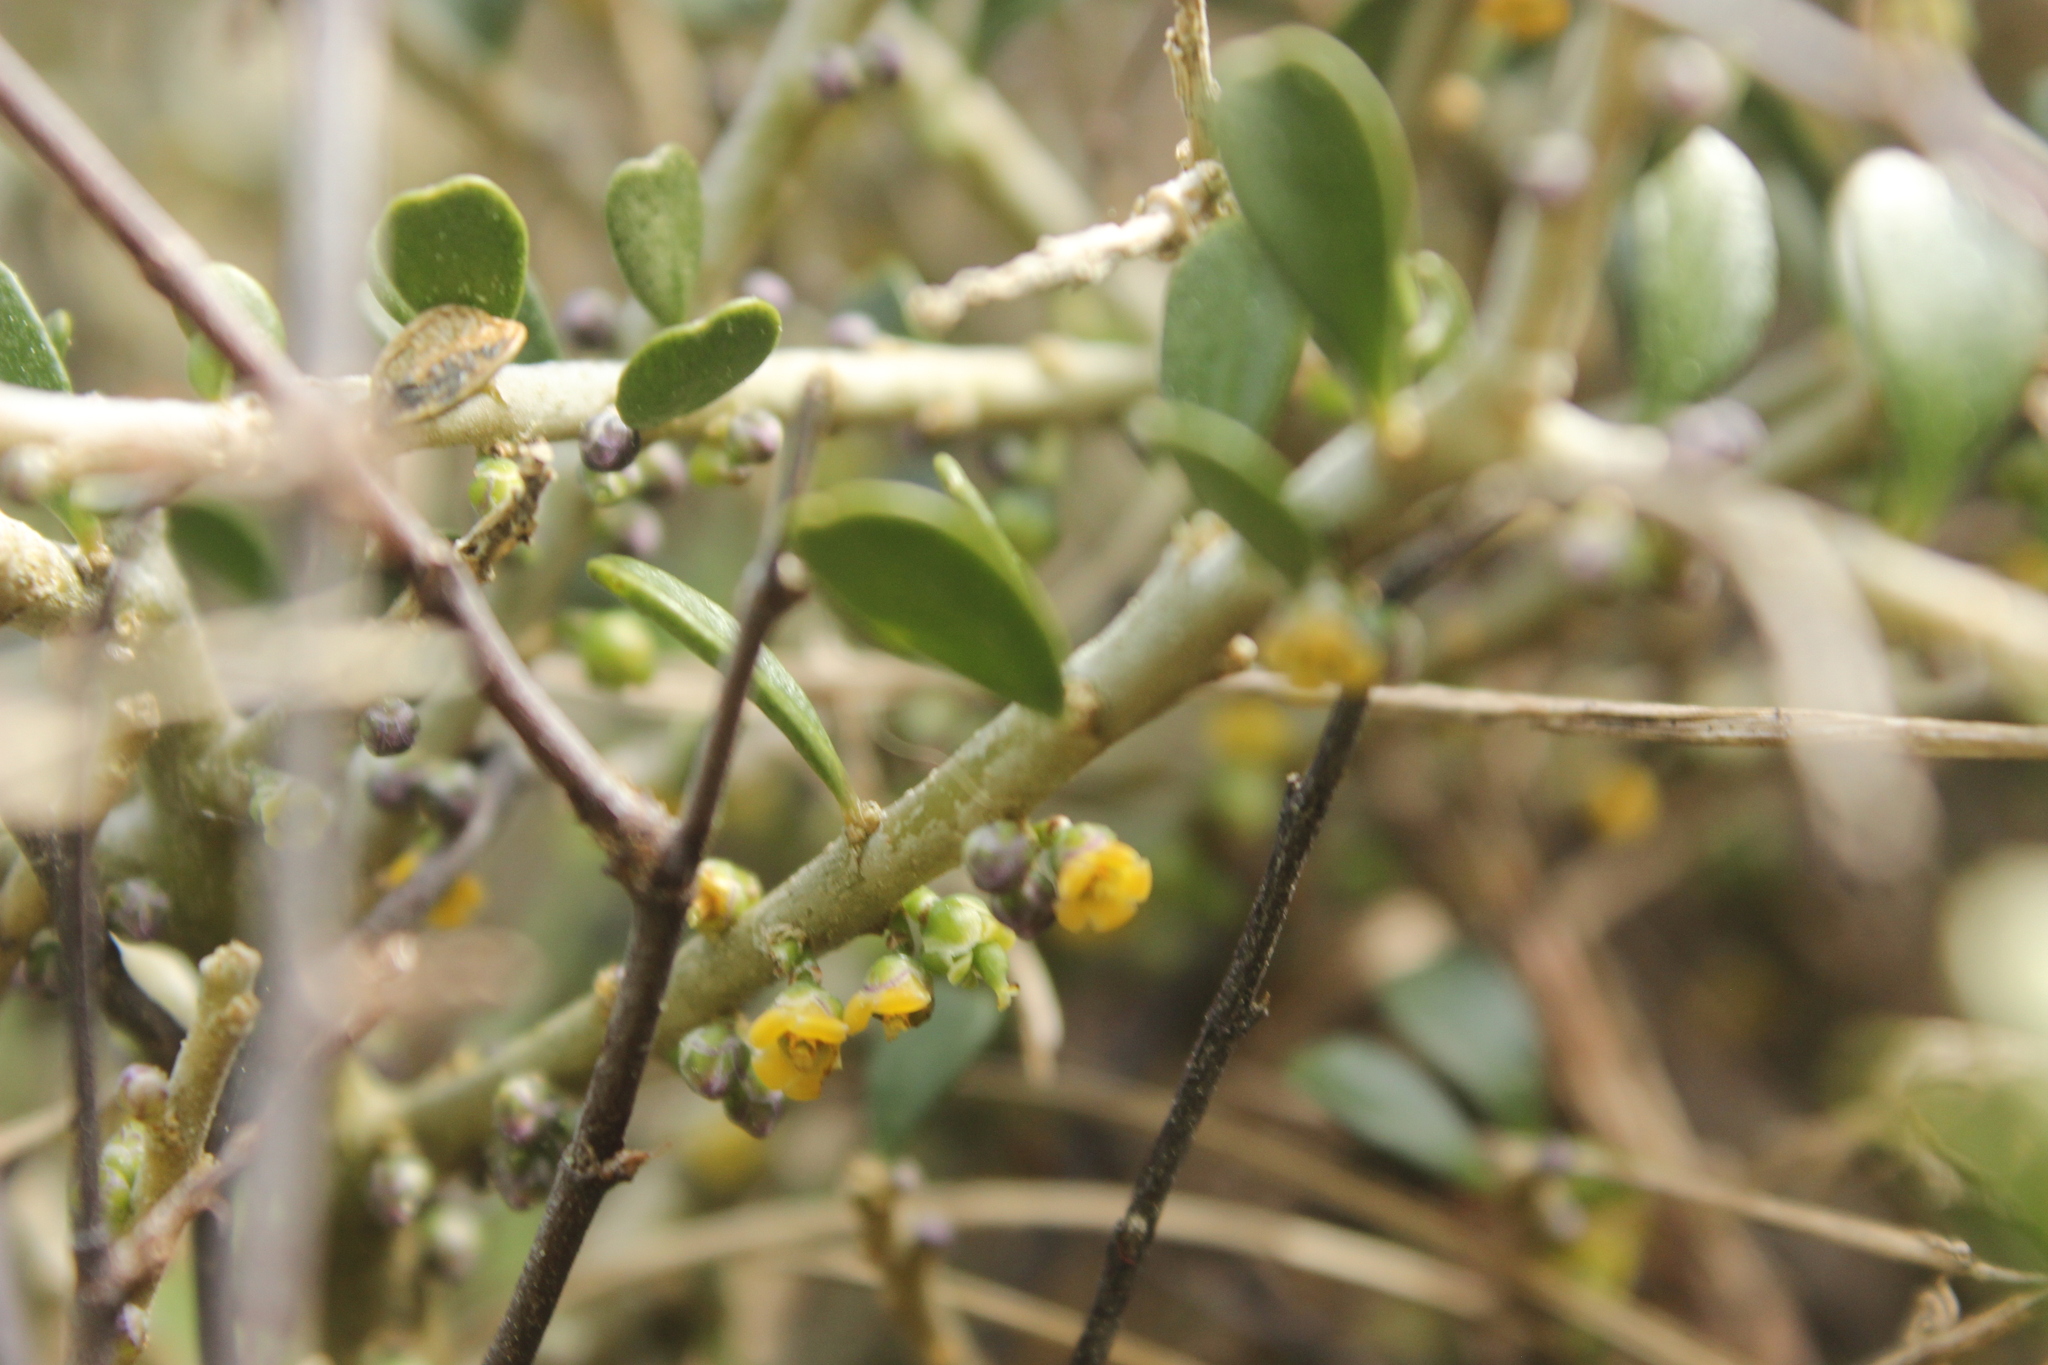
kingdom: Plantae
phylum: Tracheophyta
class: Magnoliopsida
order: Malpighiales
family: Violaceae
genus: Melicytus
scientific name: Melicytus crassifolius
